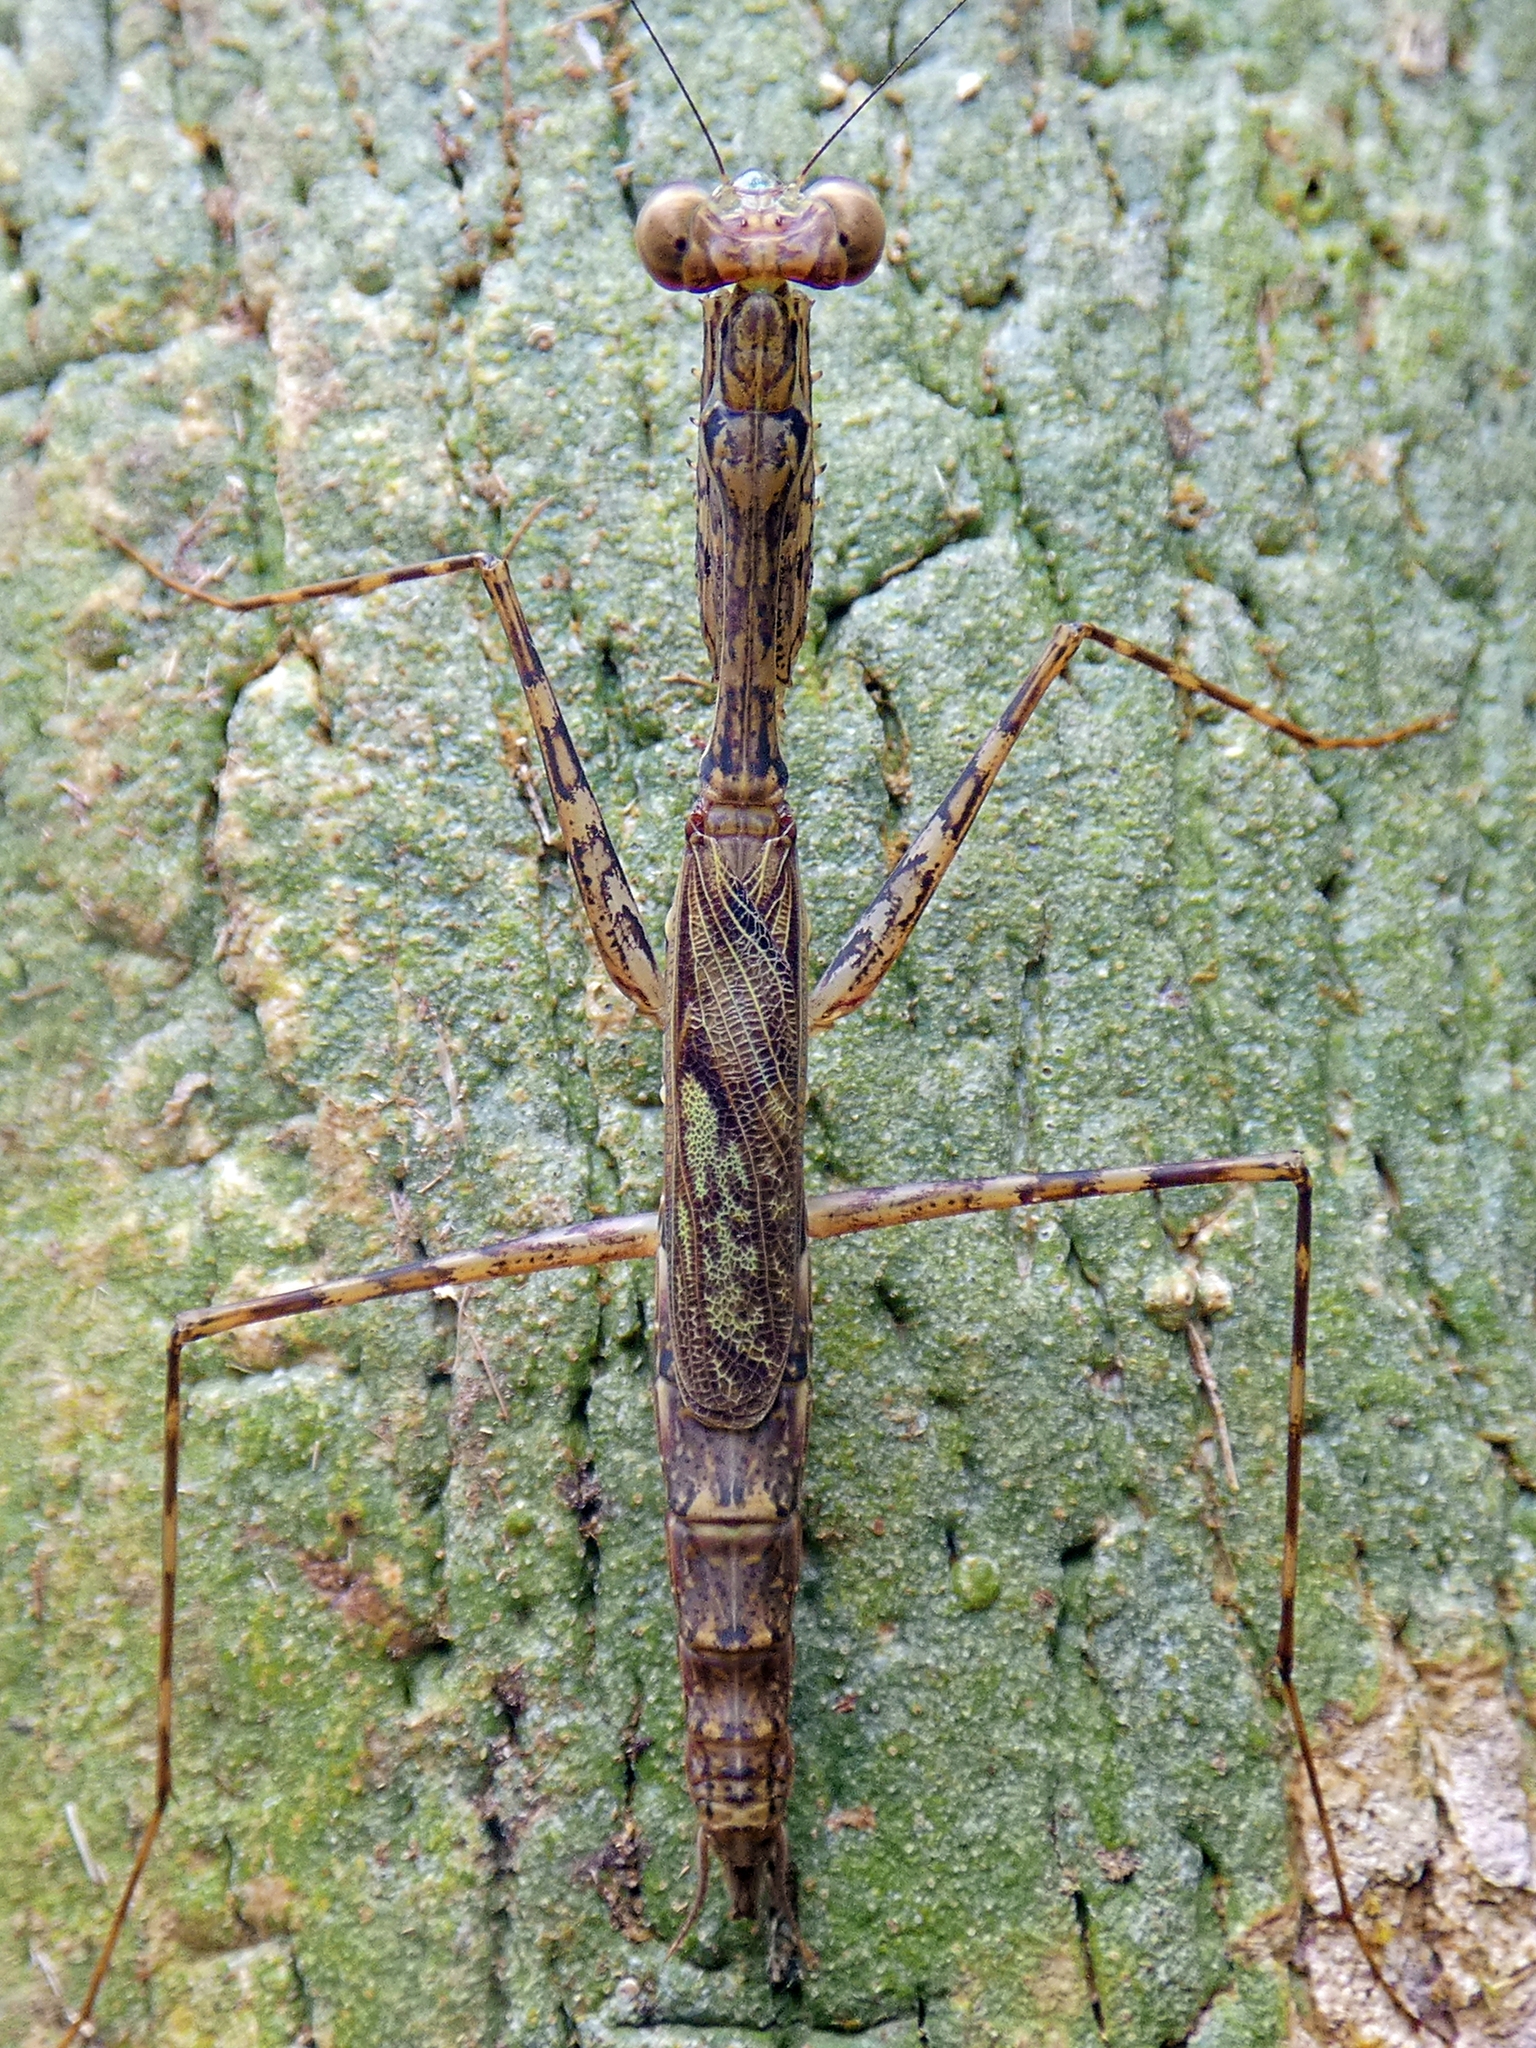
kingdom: Animalia
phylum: Arthropoda
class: Insecta
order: Mantodea
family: Nanomantidae
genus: Ciulfina
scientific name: Ciulfina rentzi
